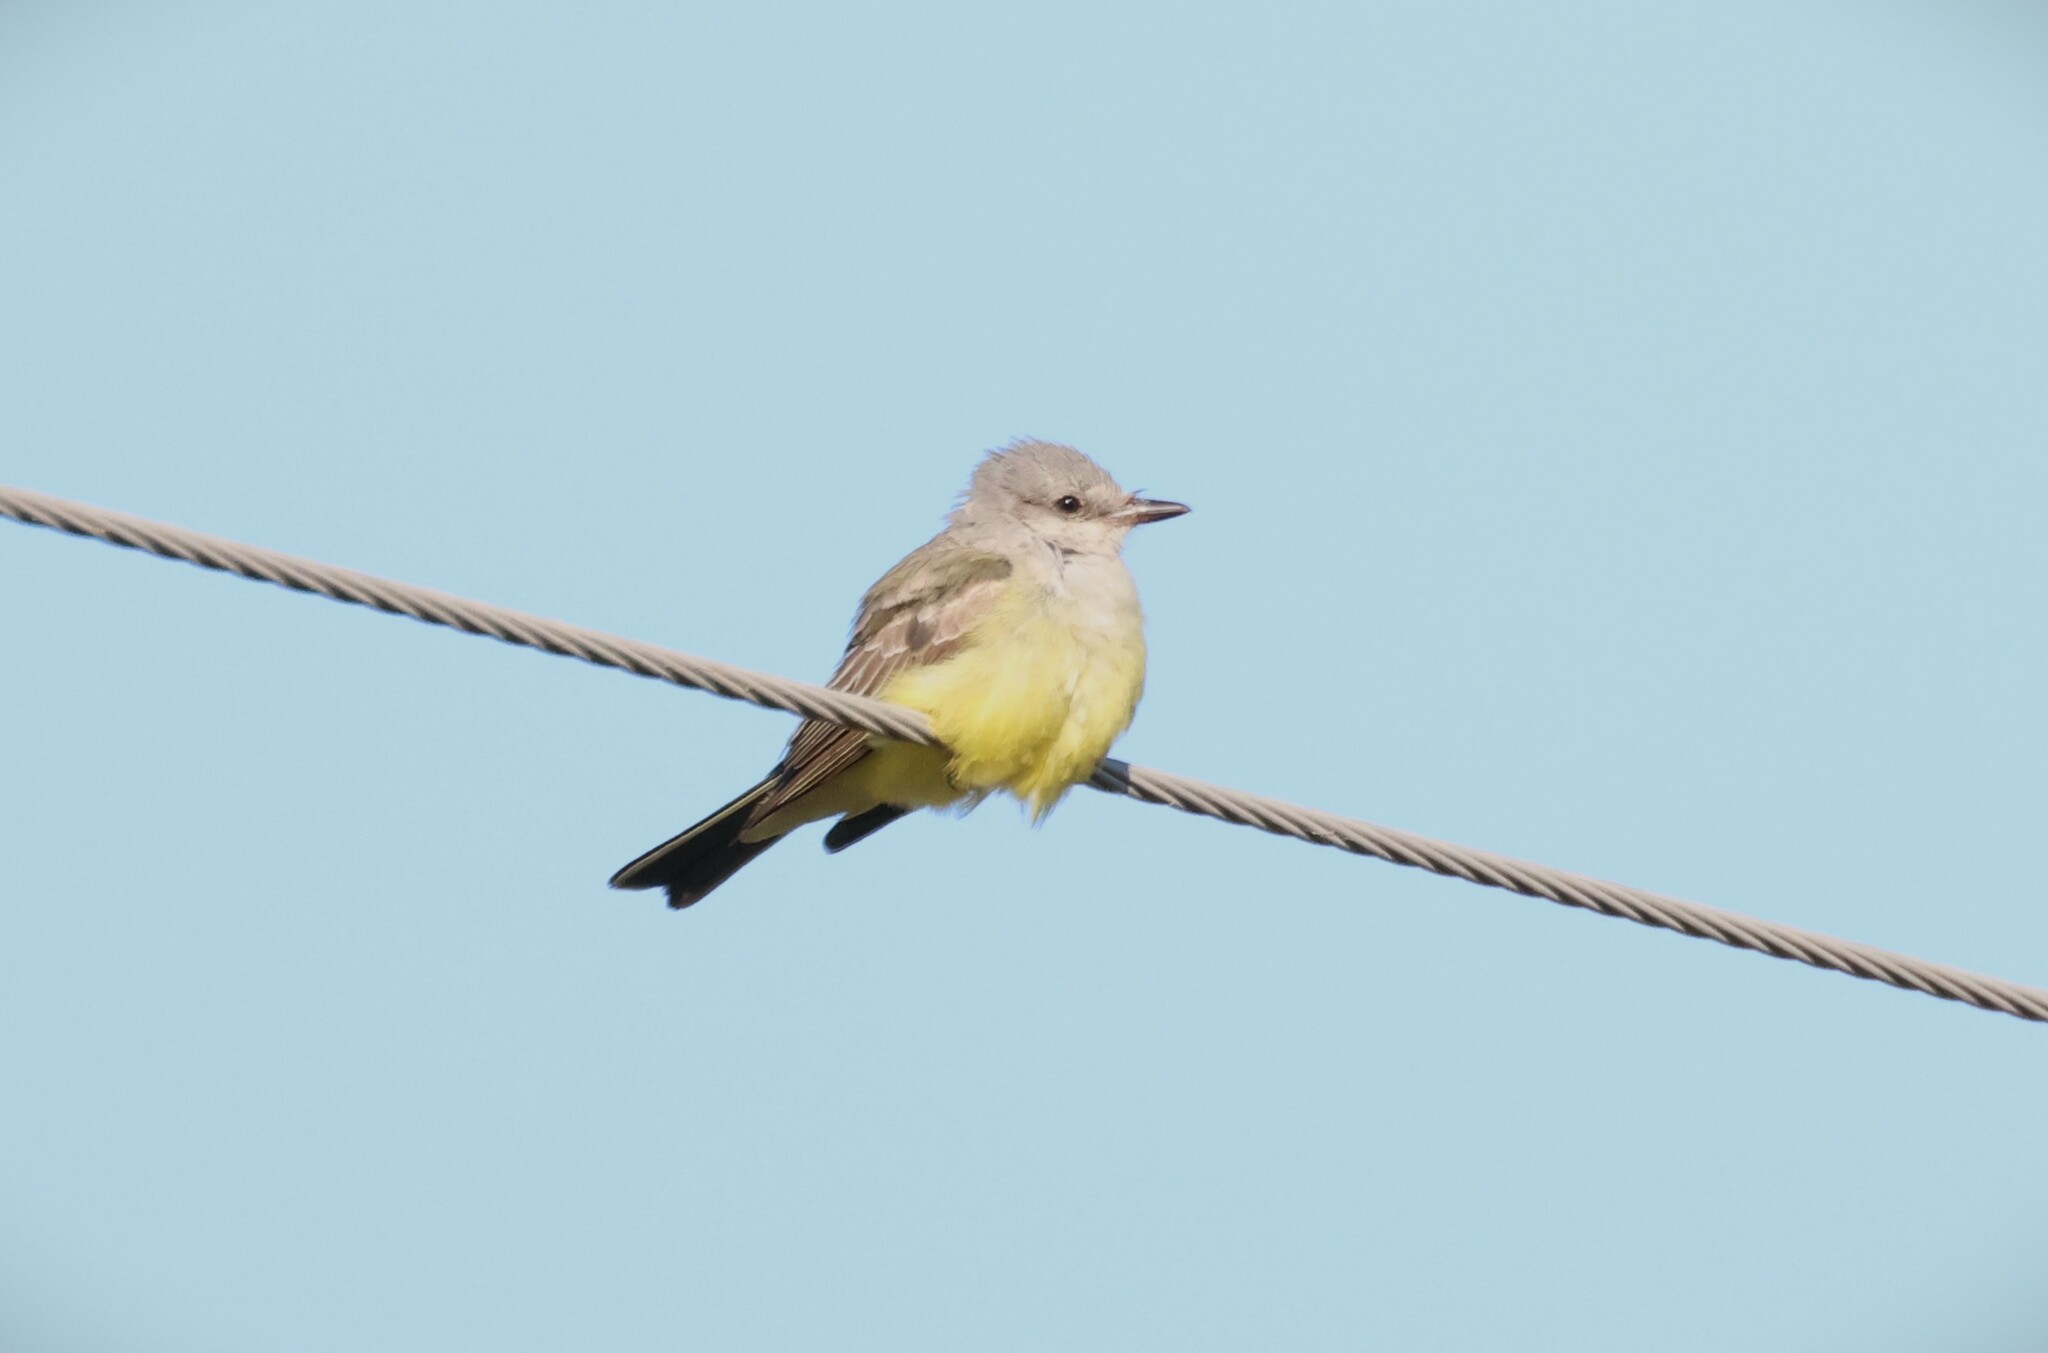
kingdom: Animalia
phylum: Chordata
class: Aves
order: Passeriformes
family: Tyrannidae
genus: Tyrannus
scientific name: Tyrannus verticalis
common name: Western kingbird
